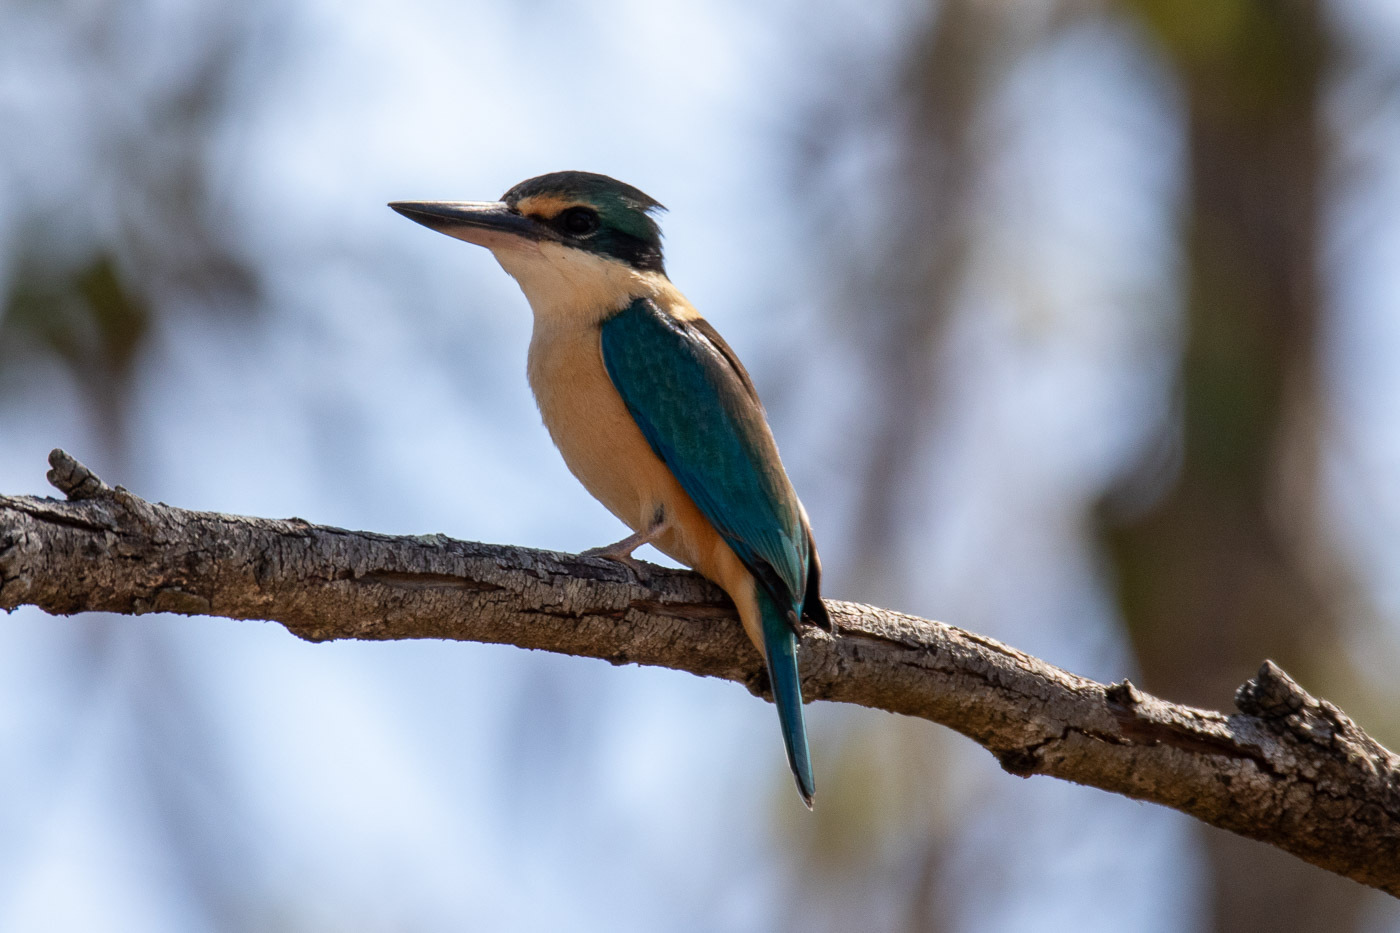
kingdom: Animalia
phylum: Chordata
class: Aves
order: Coraciiformes
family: Alcedinidae
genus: Todiramphus
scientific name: Todiramphus sanctus
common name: Sacred kingfisher
